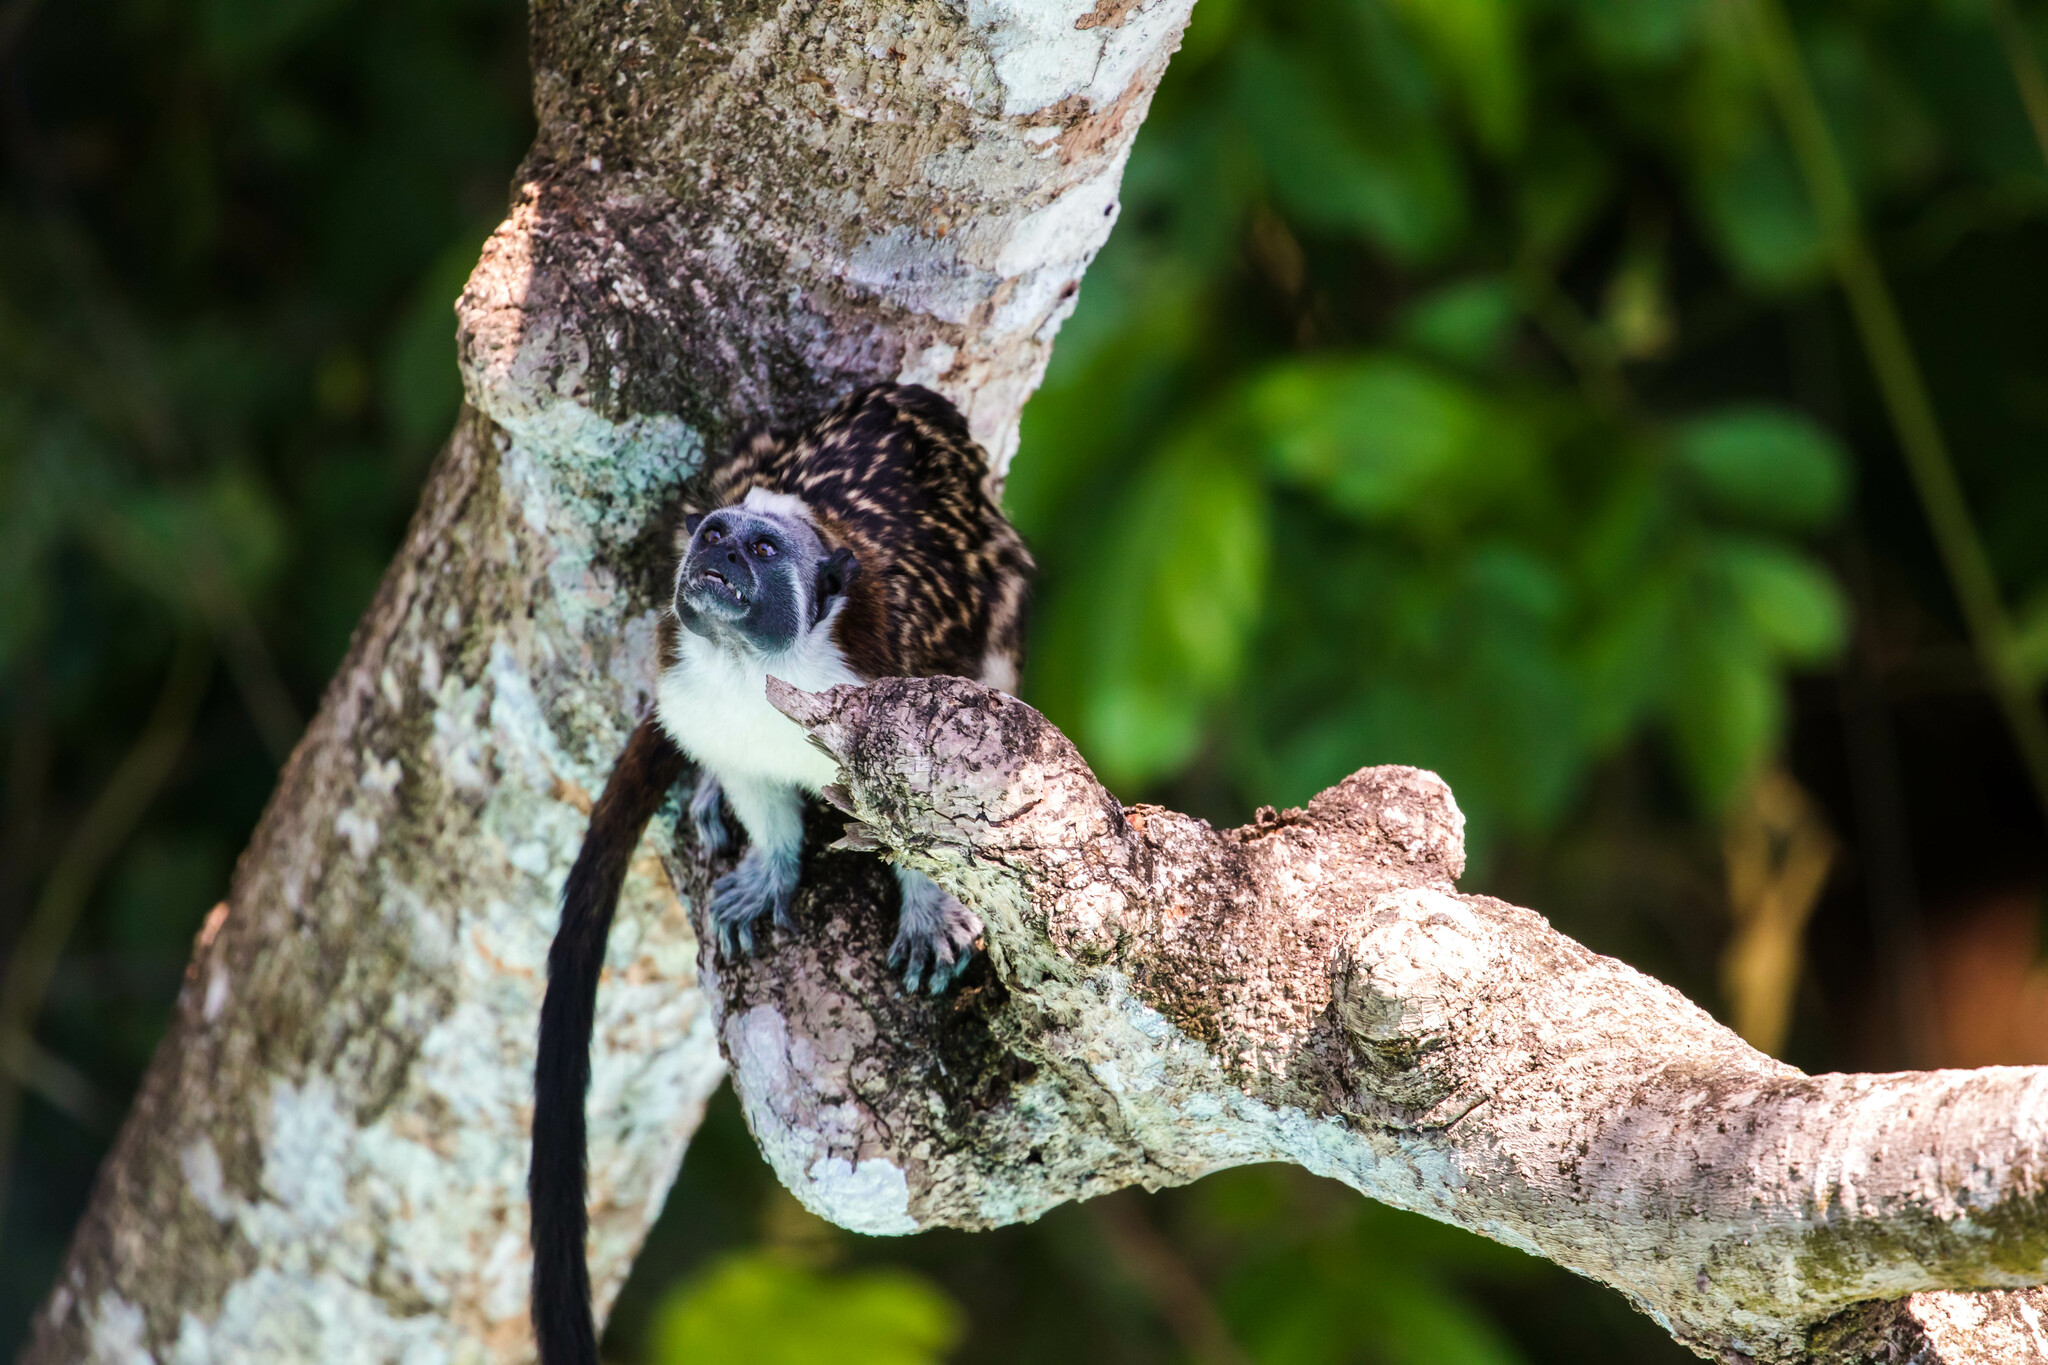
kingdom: Animalia
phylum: Chordata
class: Mammalia
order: Primates
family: Callitrichidae
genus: Saguinus
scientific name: Saguinus geoffroyi
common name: Geoffroy s tamarin
